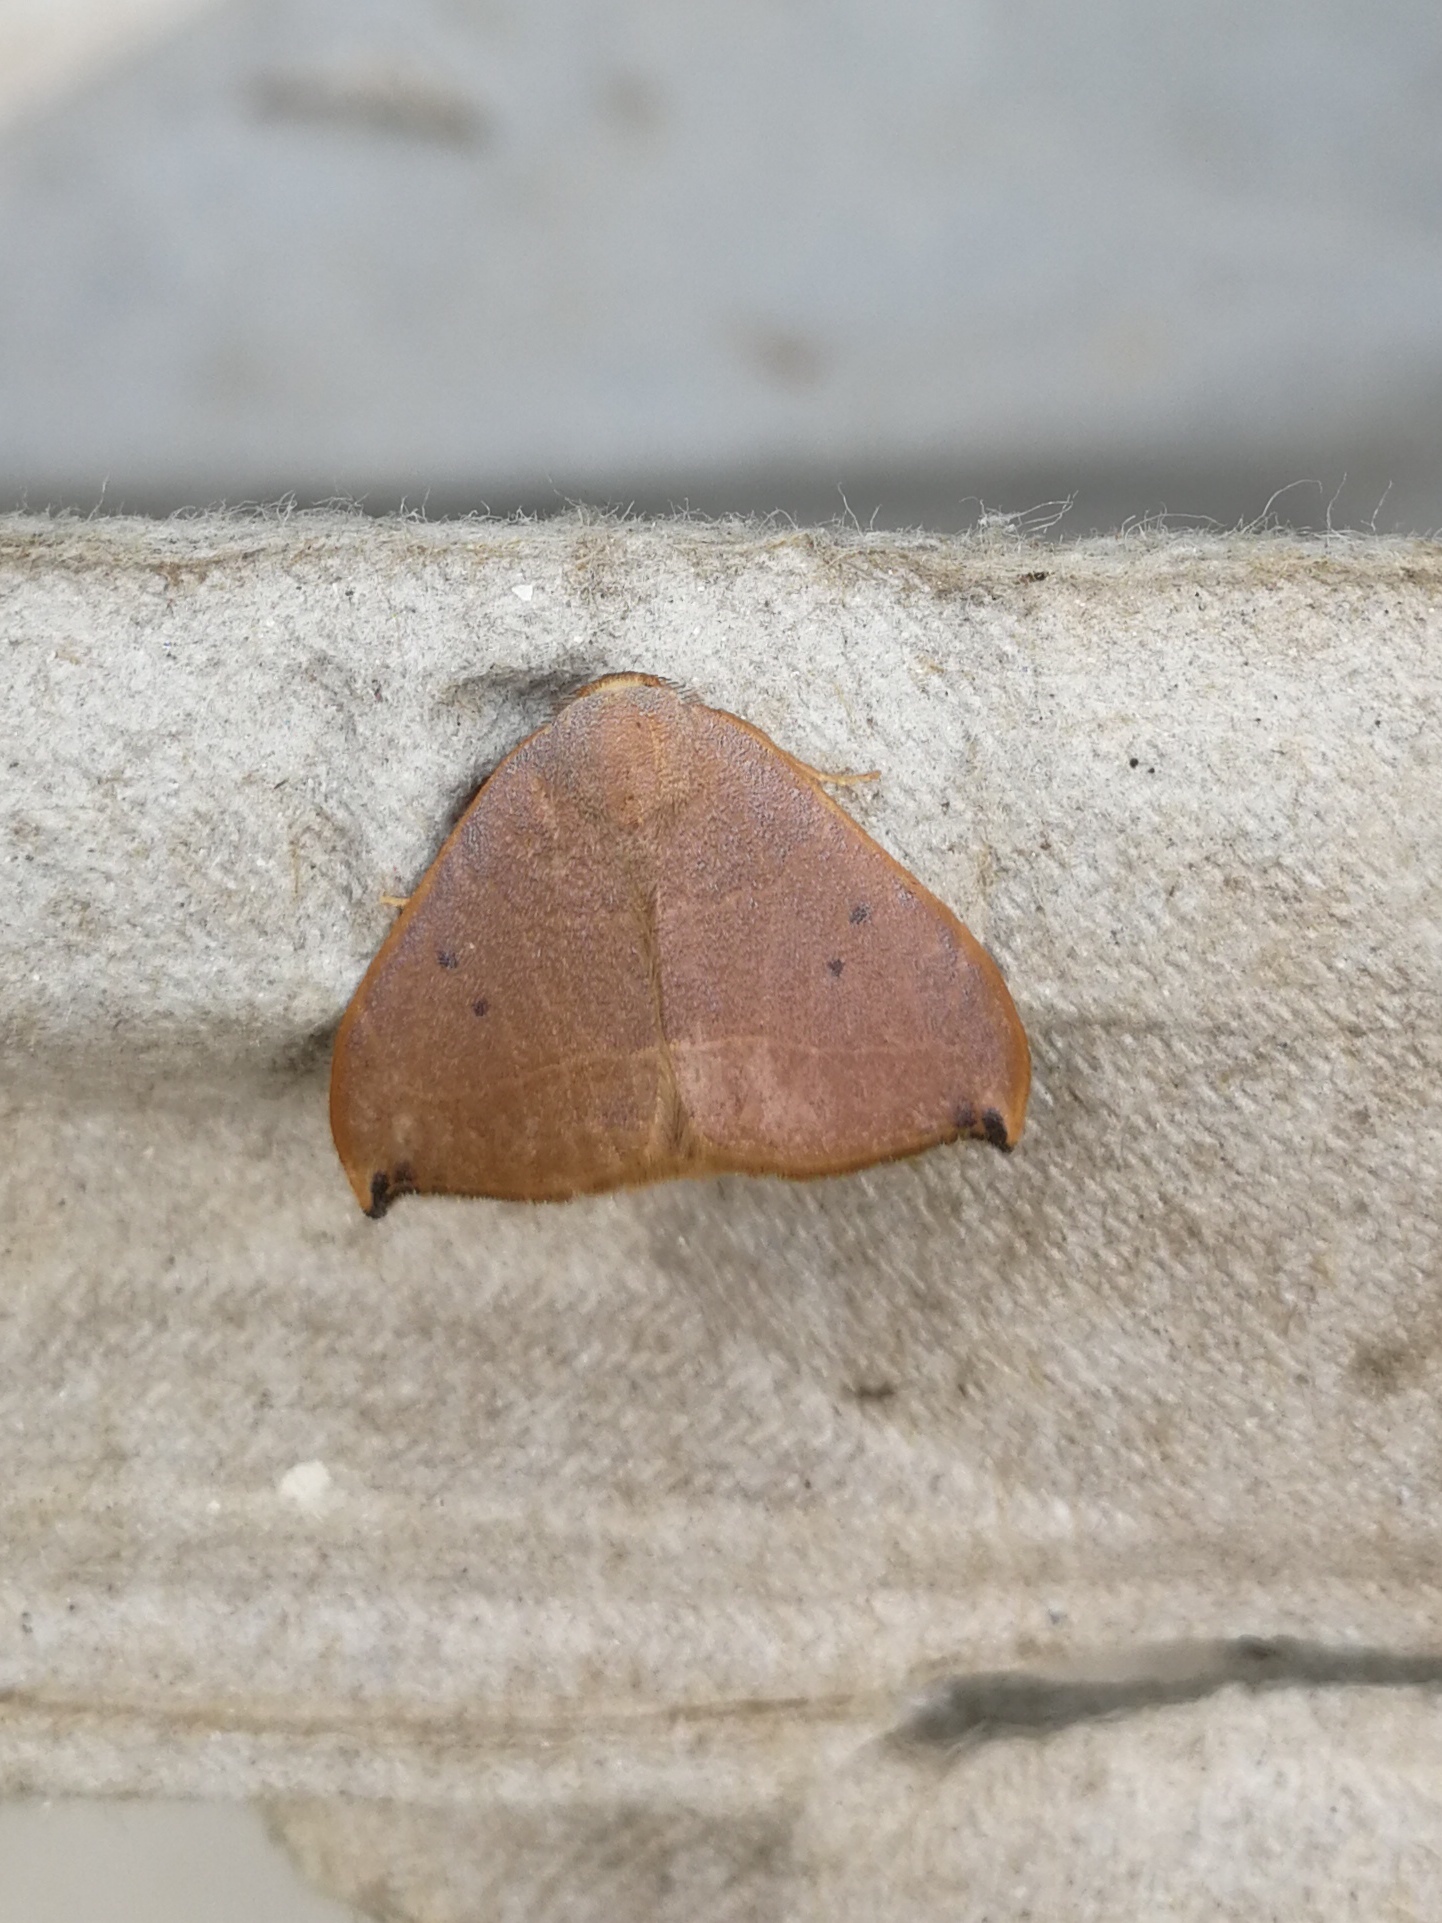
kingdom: Animalia
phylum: Arthropoda
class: Insecta
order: Lepidoptera
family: Drepanidae
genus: Watsonalla
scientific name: Watsonalla uncinula
